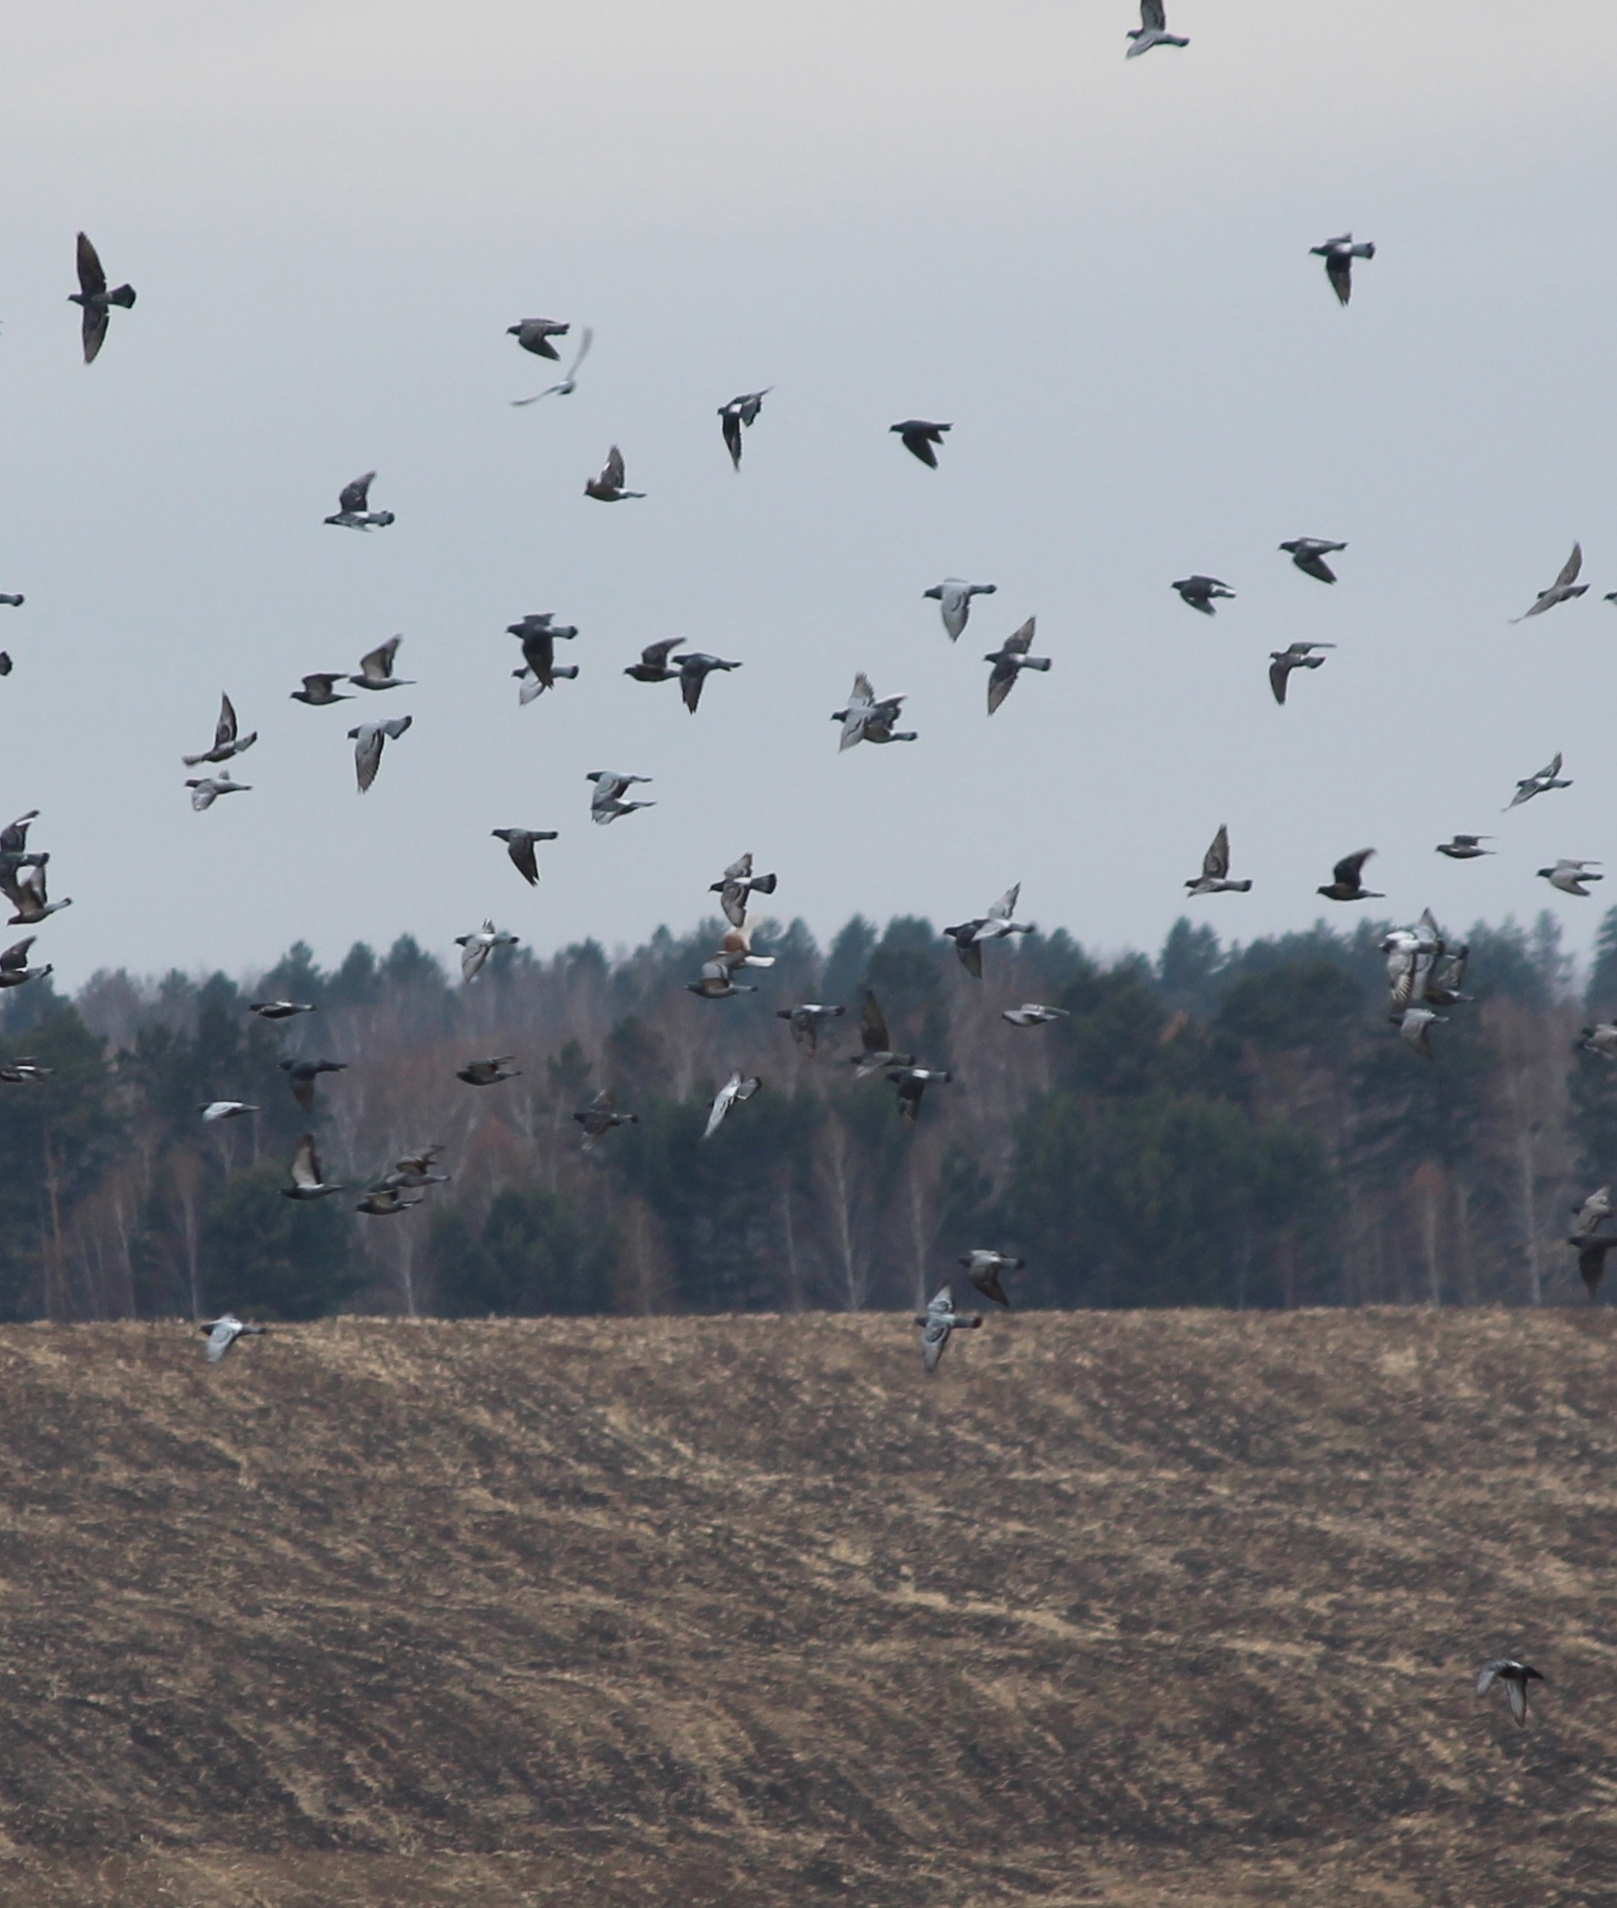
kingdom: Animalia
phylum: Chordata
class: Aves
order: Columbiformes
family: Columbidae
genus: Columba
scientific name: Columba livia
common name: Rock pigeon
